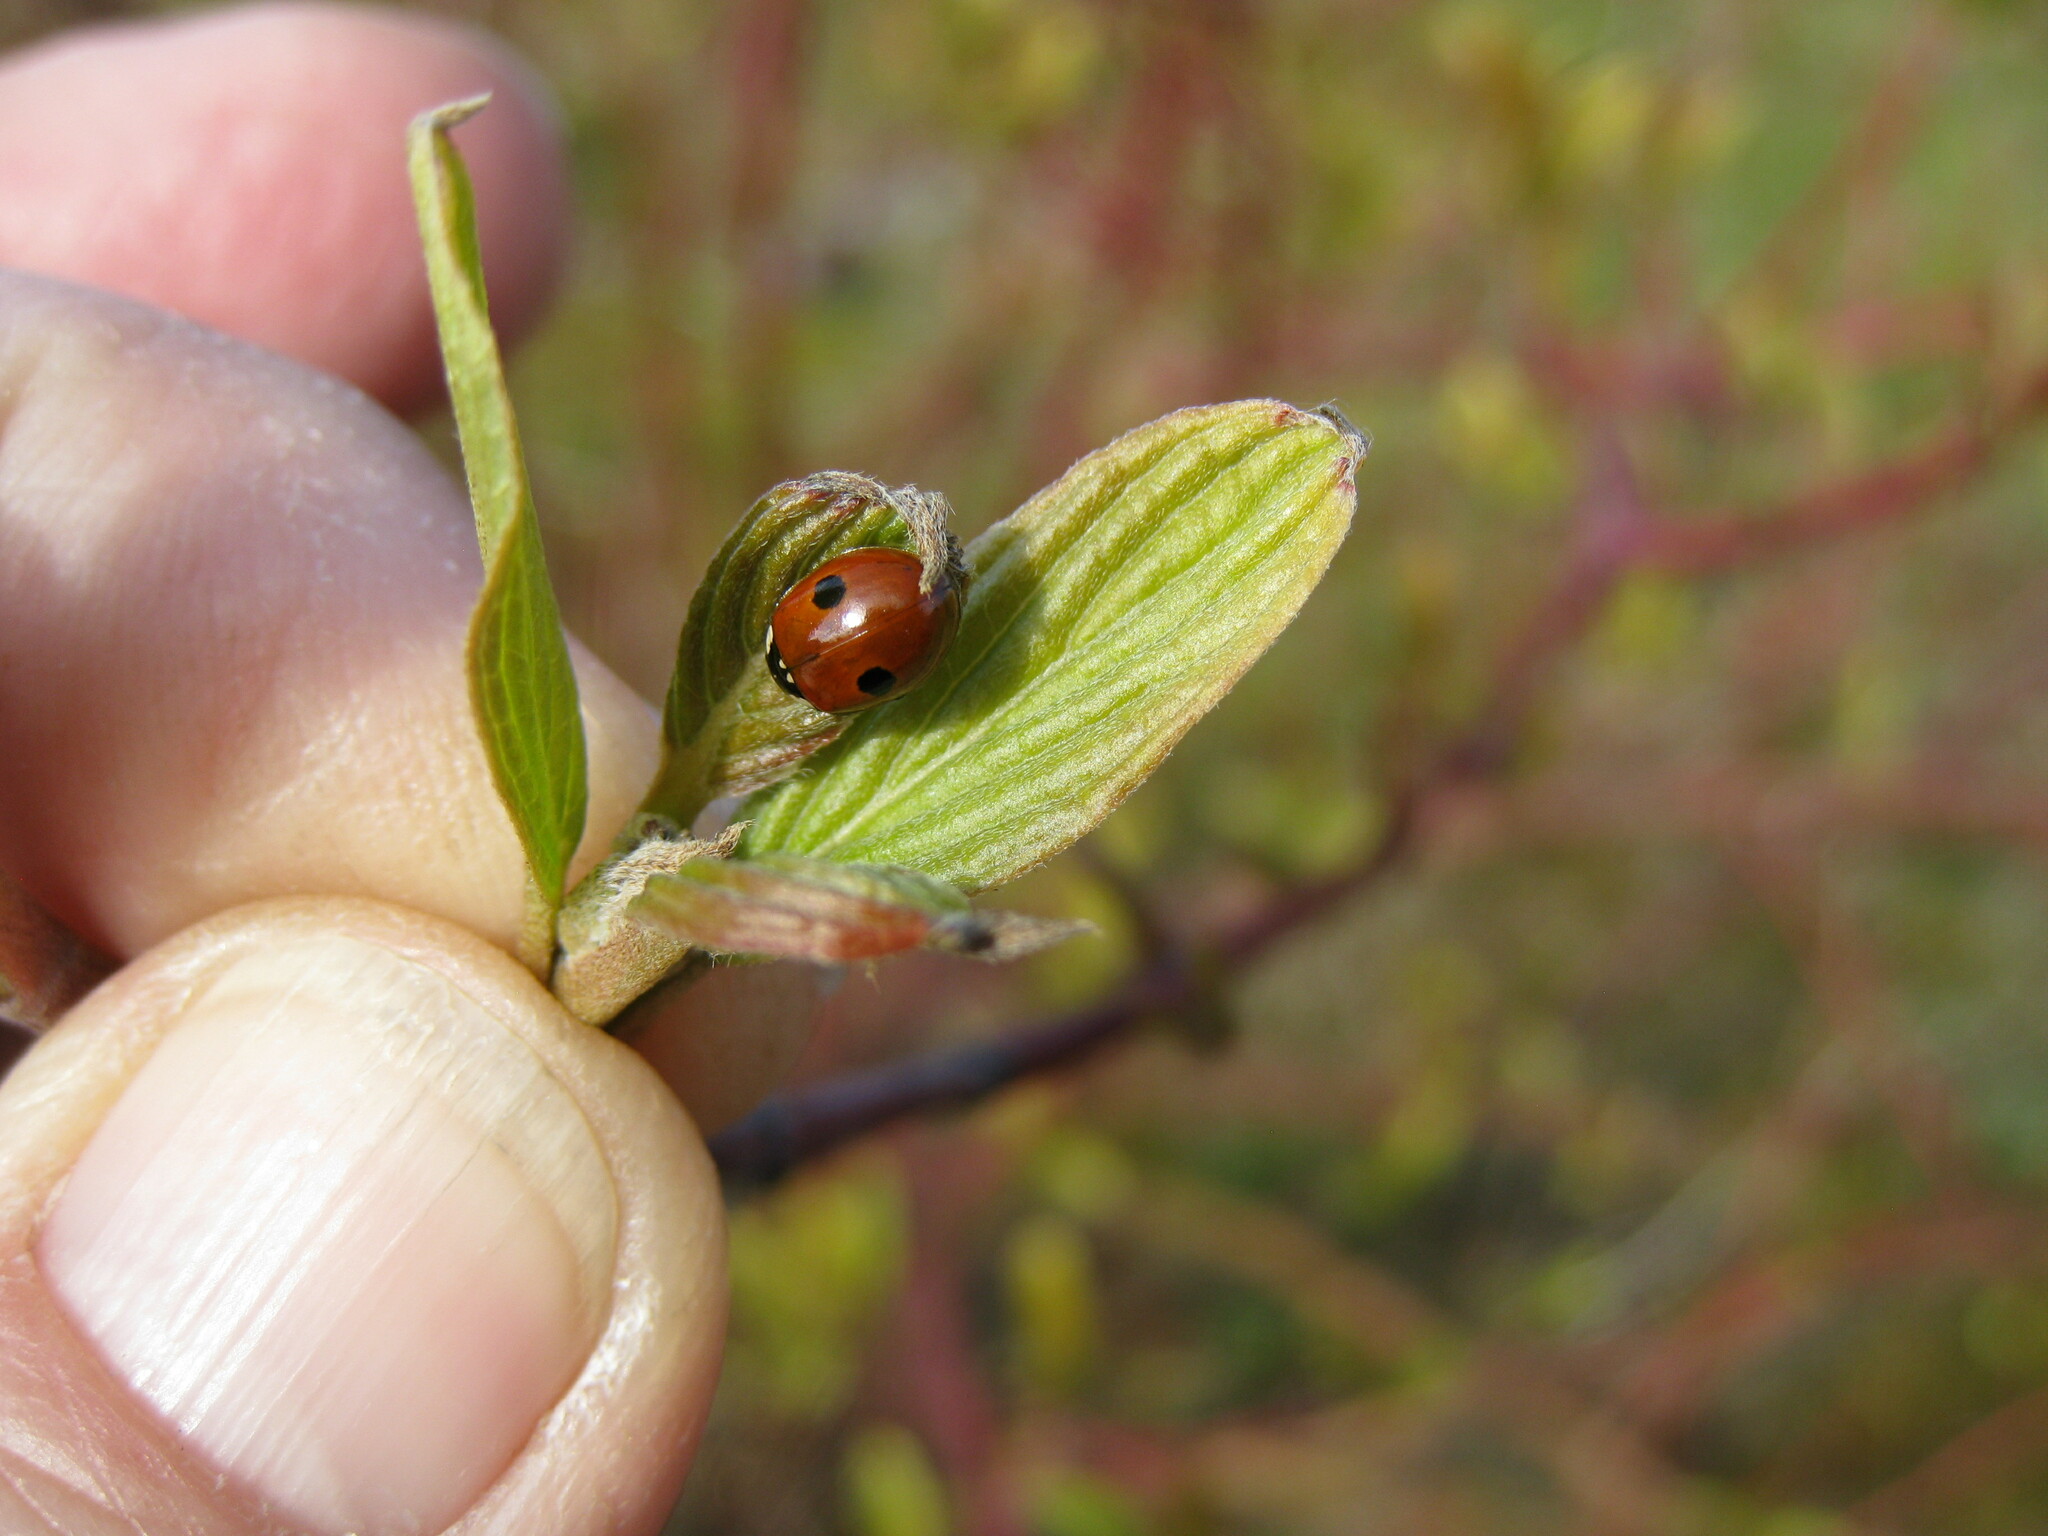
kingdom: Animalia
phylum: Arthropoda
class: Insecta
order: Coleoptera
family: Coccinellidae
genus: Adalia
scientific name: Adalia bipunctata
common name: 2-spot ladybird
